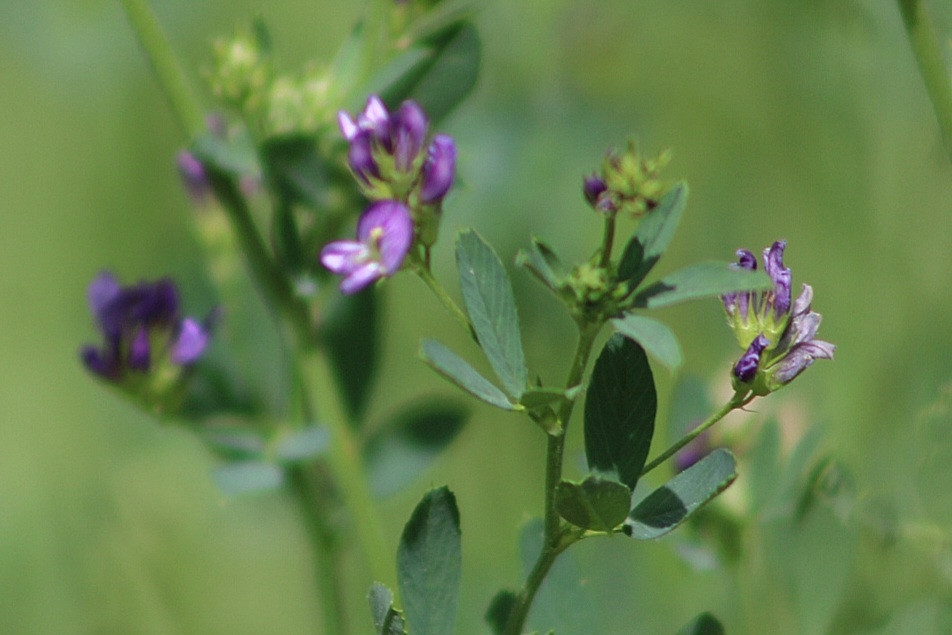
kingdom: Plantae
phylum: Tracheophyta
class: Magnoliopsida
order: Fabales
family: Fabaceae
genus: Medicago
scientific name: Medicago sativa
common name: Alfalfa
